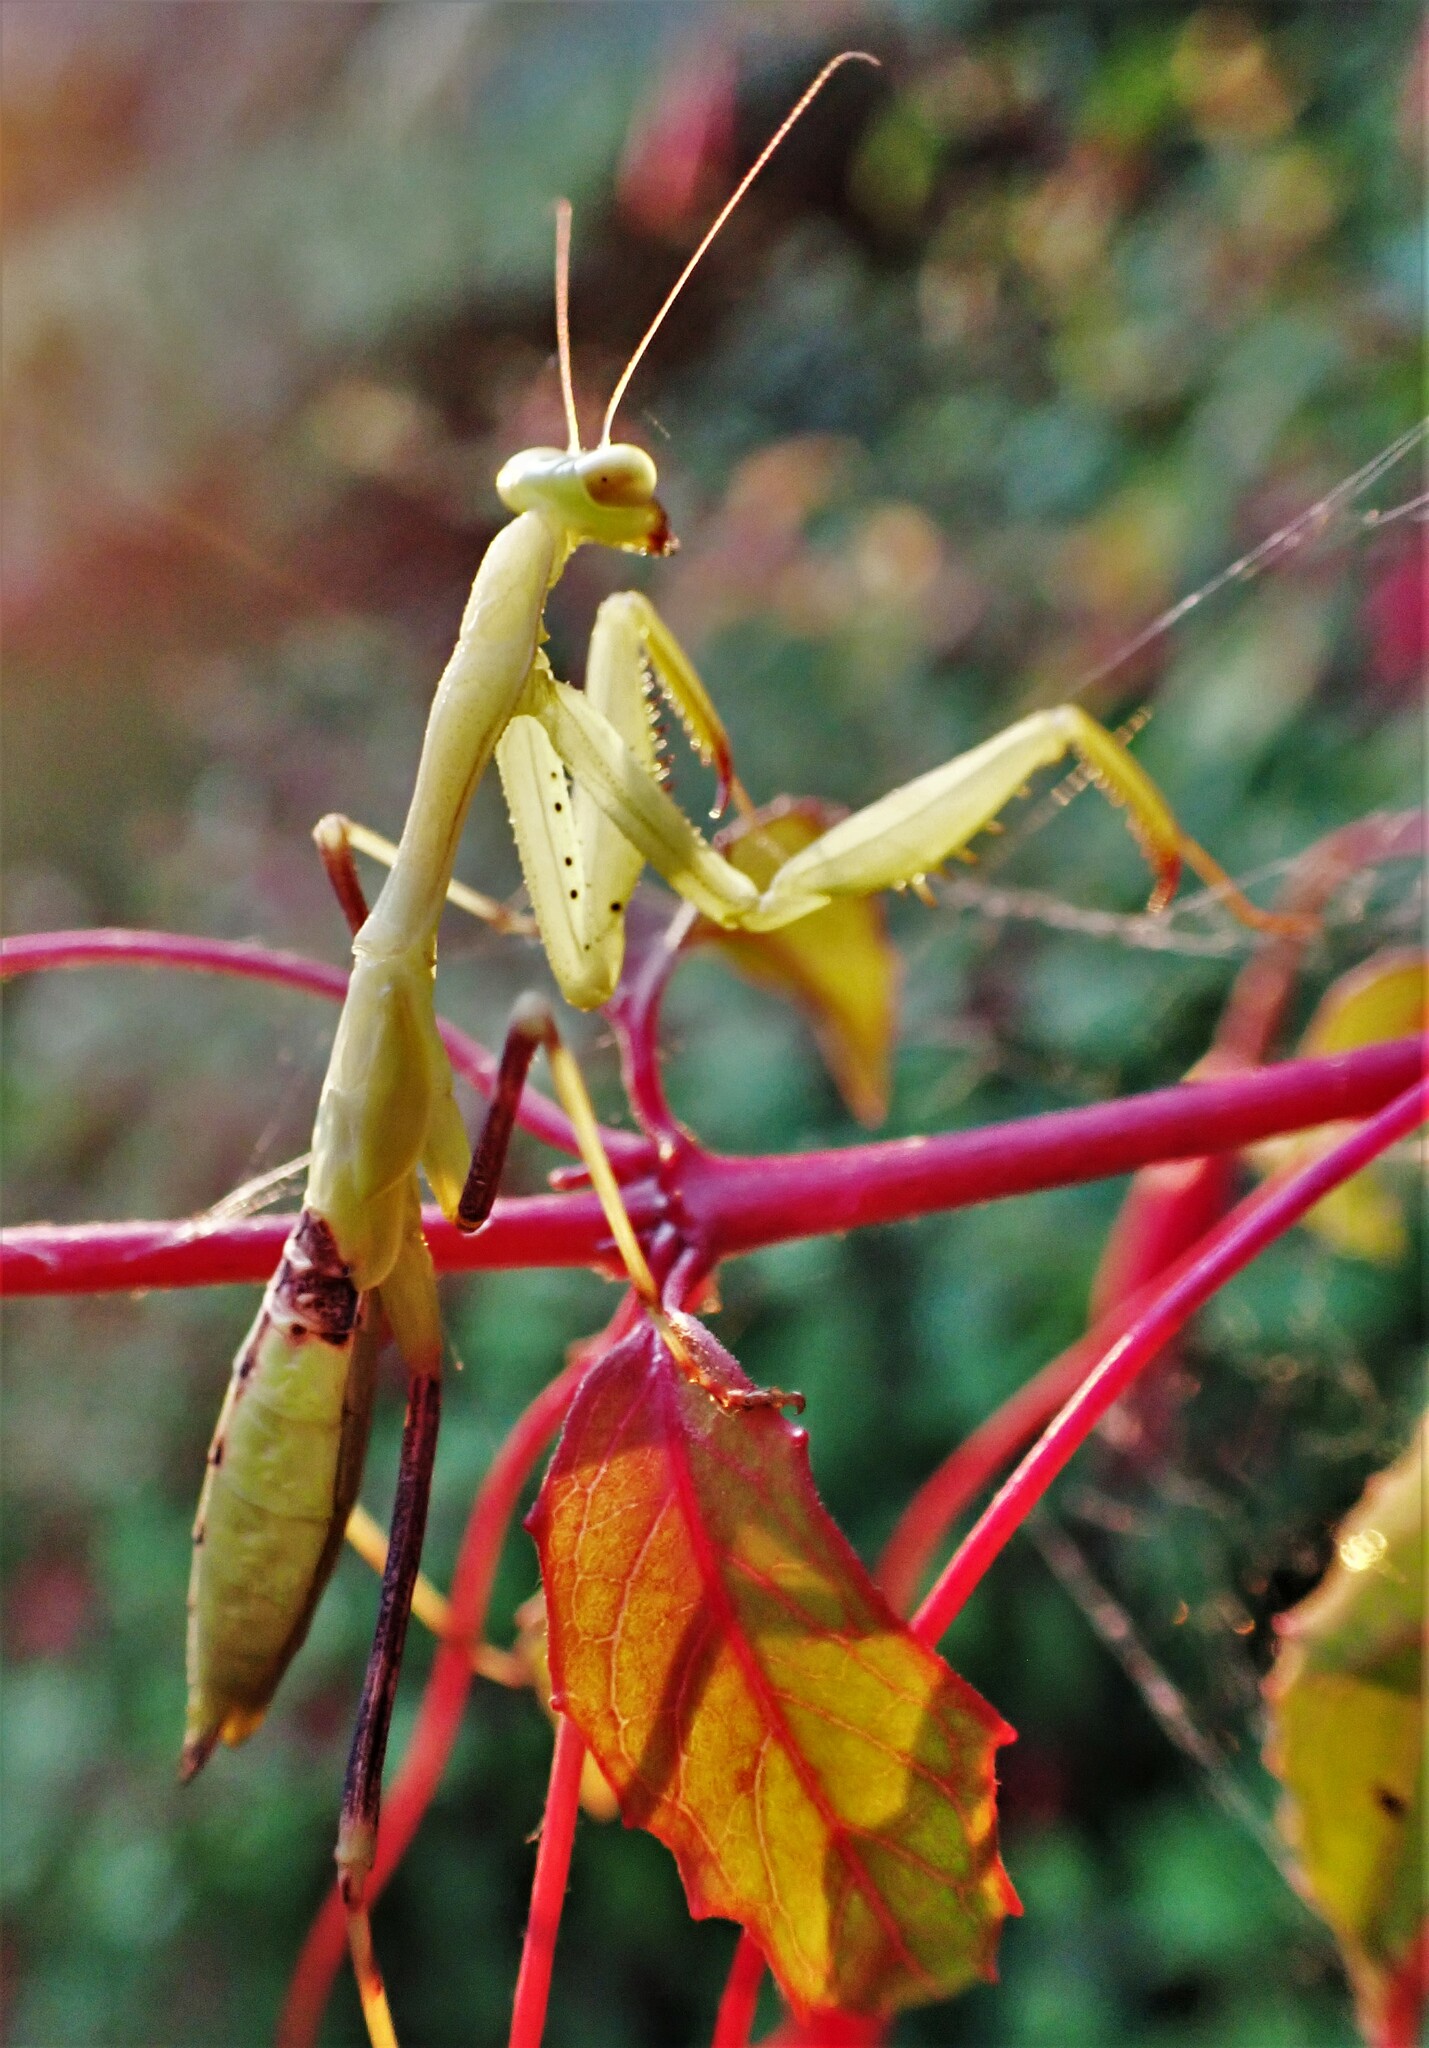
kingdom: Animalia
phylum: Arthropoda
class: Insecta
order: Mantodea
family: Miomantidae
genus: Miomantis
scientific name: Miomantis caffra
